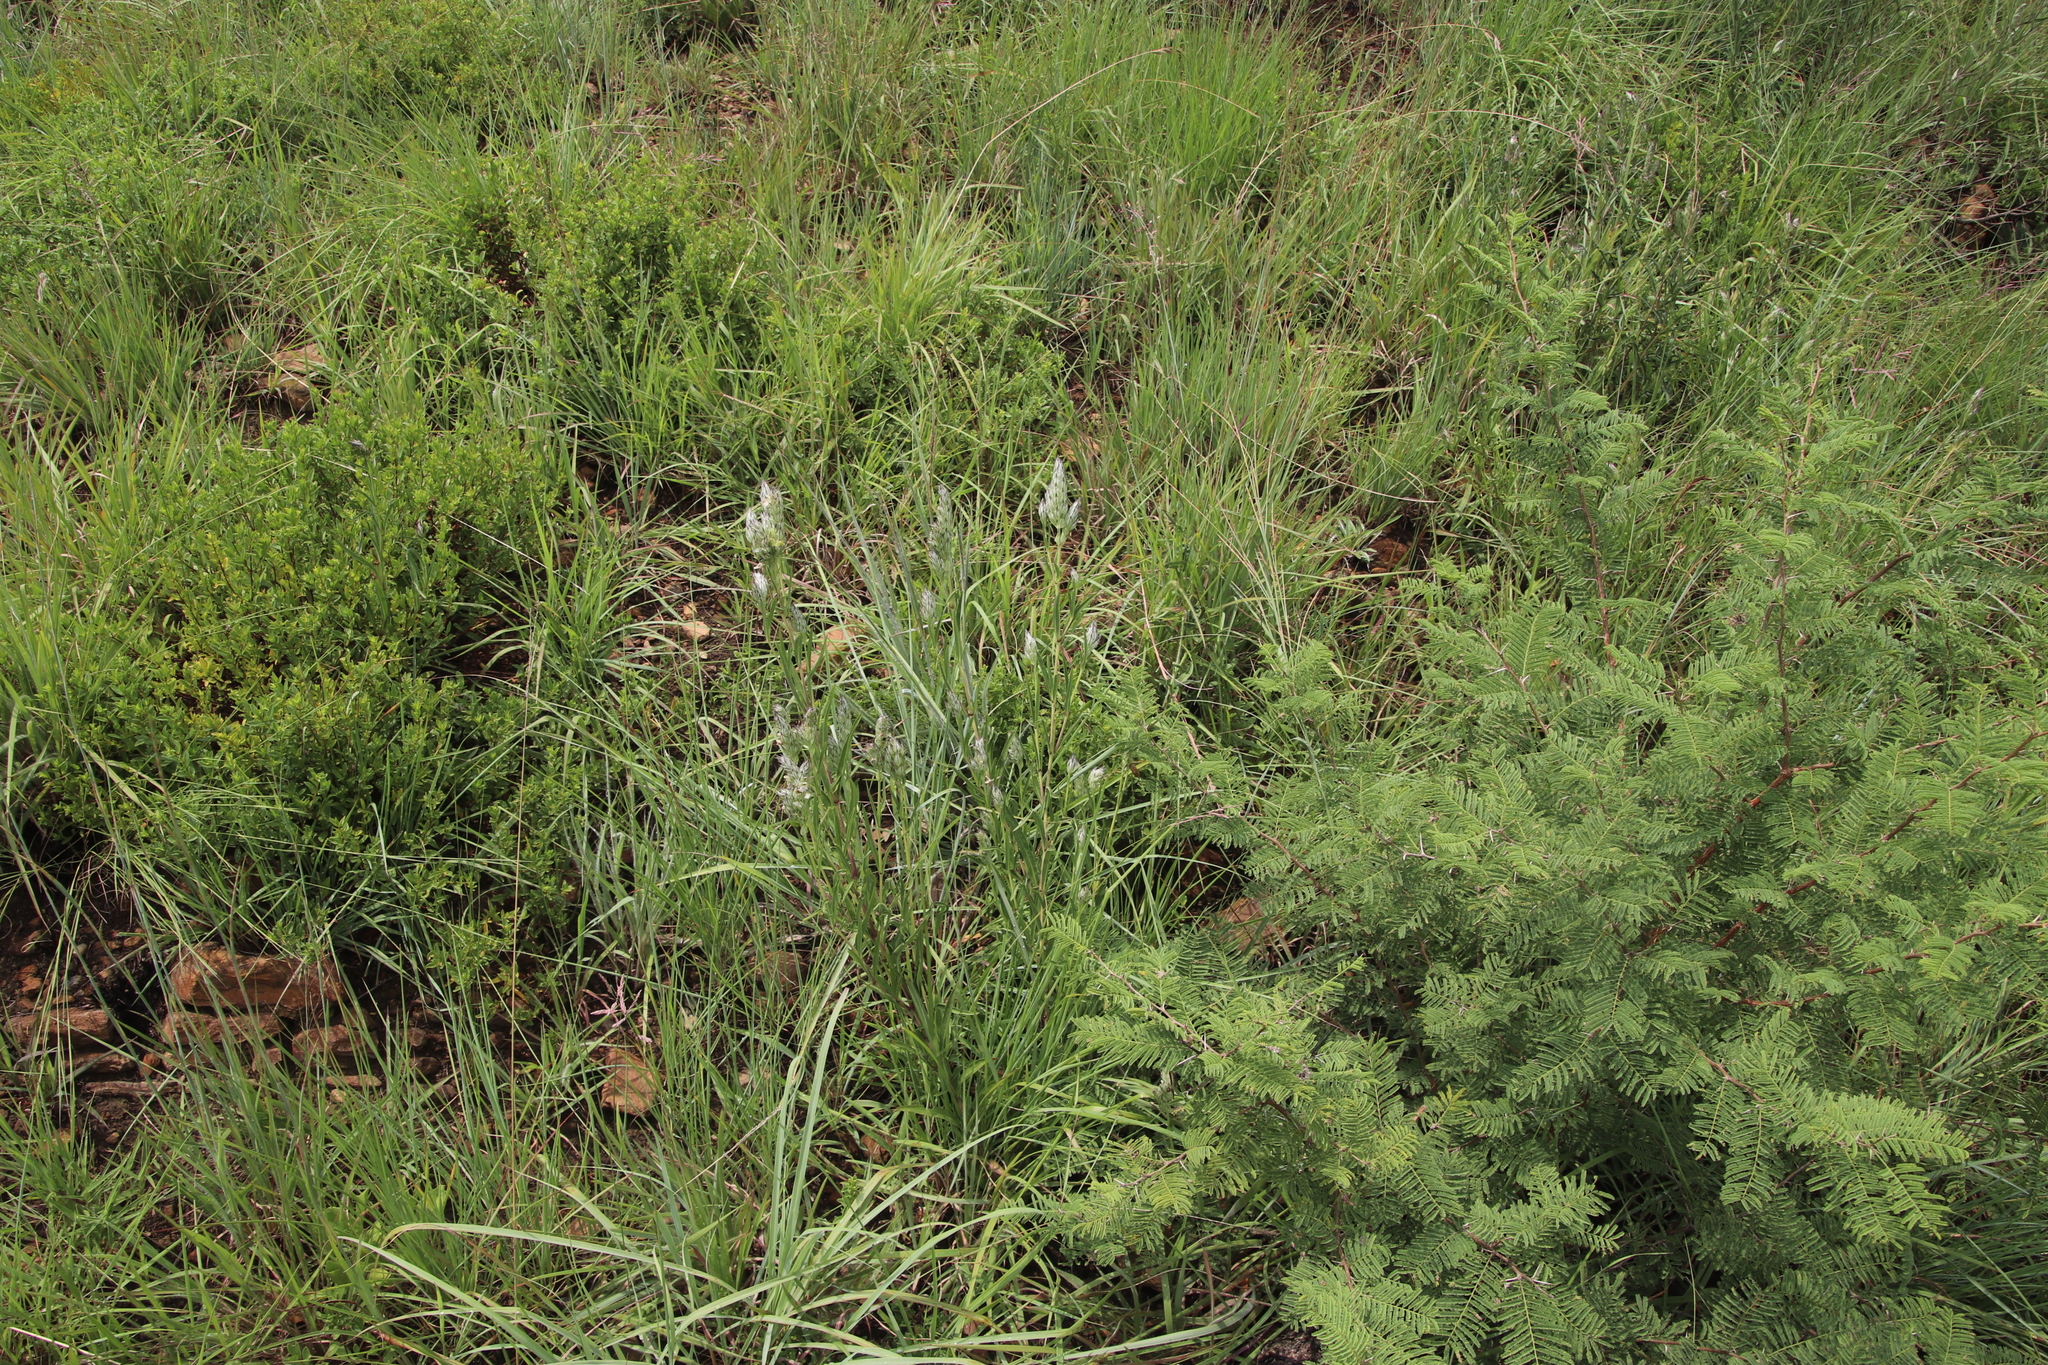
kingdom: Plantae
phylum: Tracheophyta
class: Magnoliopsida
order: Lamiales
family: Acanthaceae
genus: Justicia
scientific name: Justicia betonica
